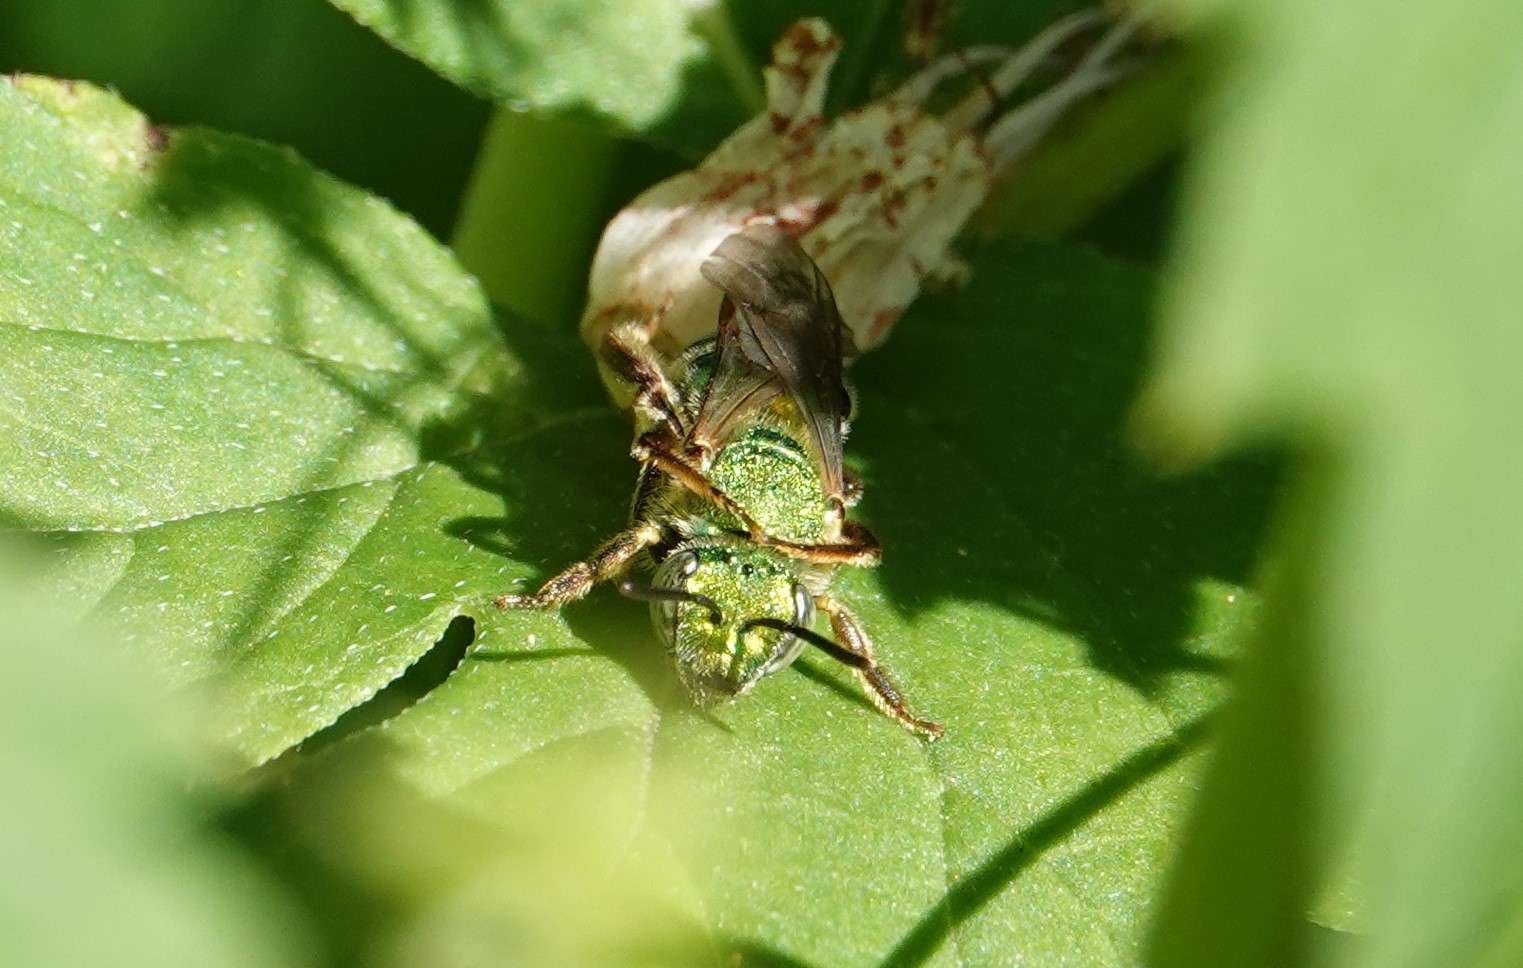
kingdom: Animalia
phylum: Arthropoda
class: Insecta
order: Hymenoptera
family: Halictidae
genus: Agapostemon
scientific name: Agapostemon sericeus
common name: Silky striped sweat bee
